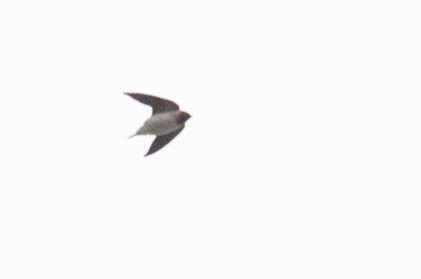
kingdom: Animalia
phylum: Chordata
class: Aves
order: Passeriformes
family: Hirundinidae
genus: Petrochelidon
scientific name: Petrochelidon pyrrhonota
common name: American cliff swallow
